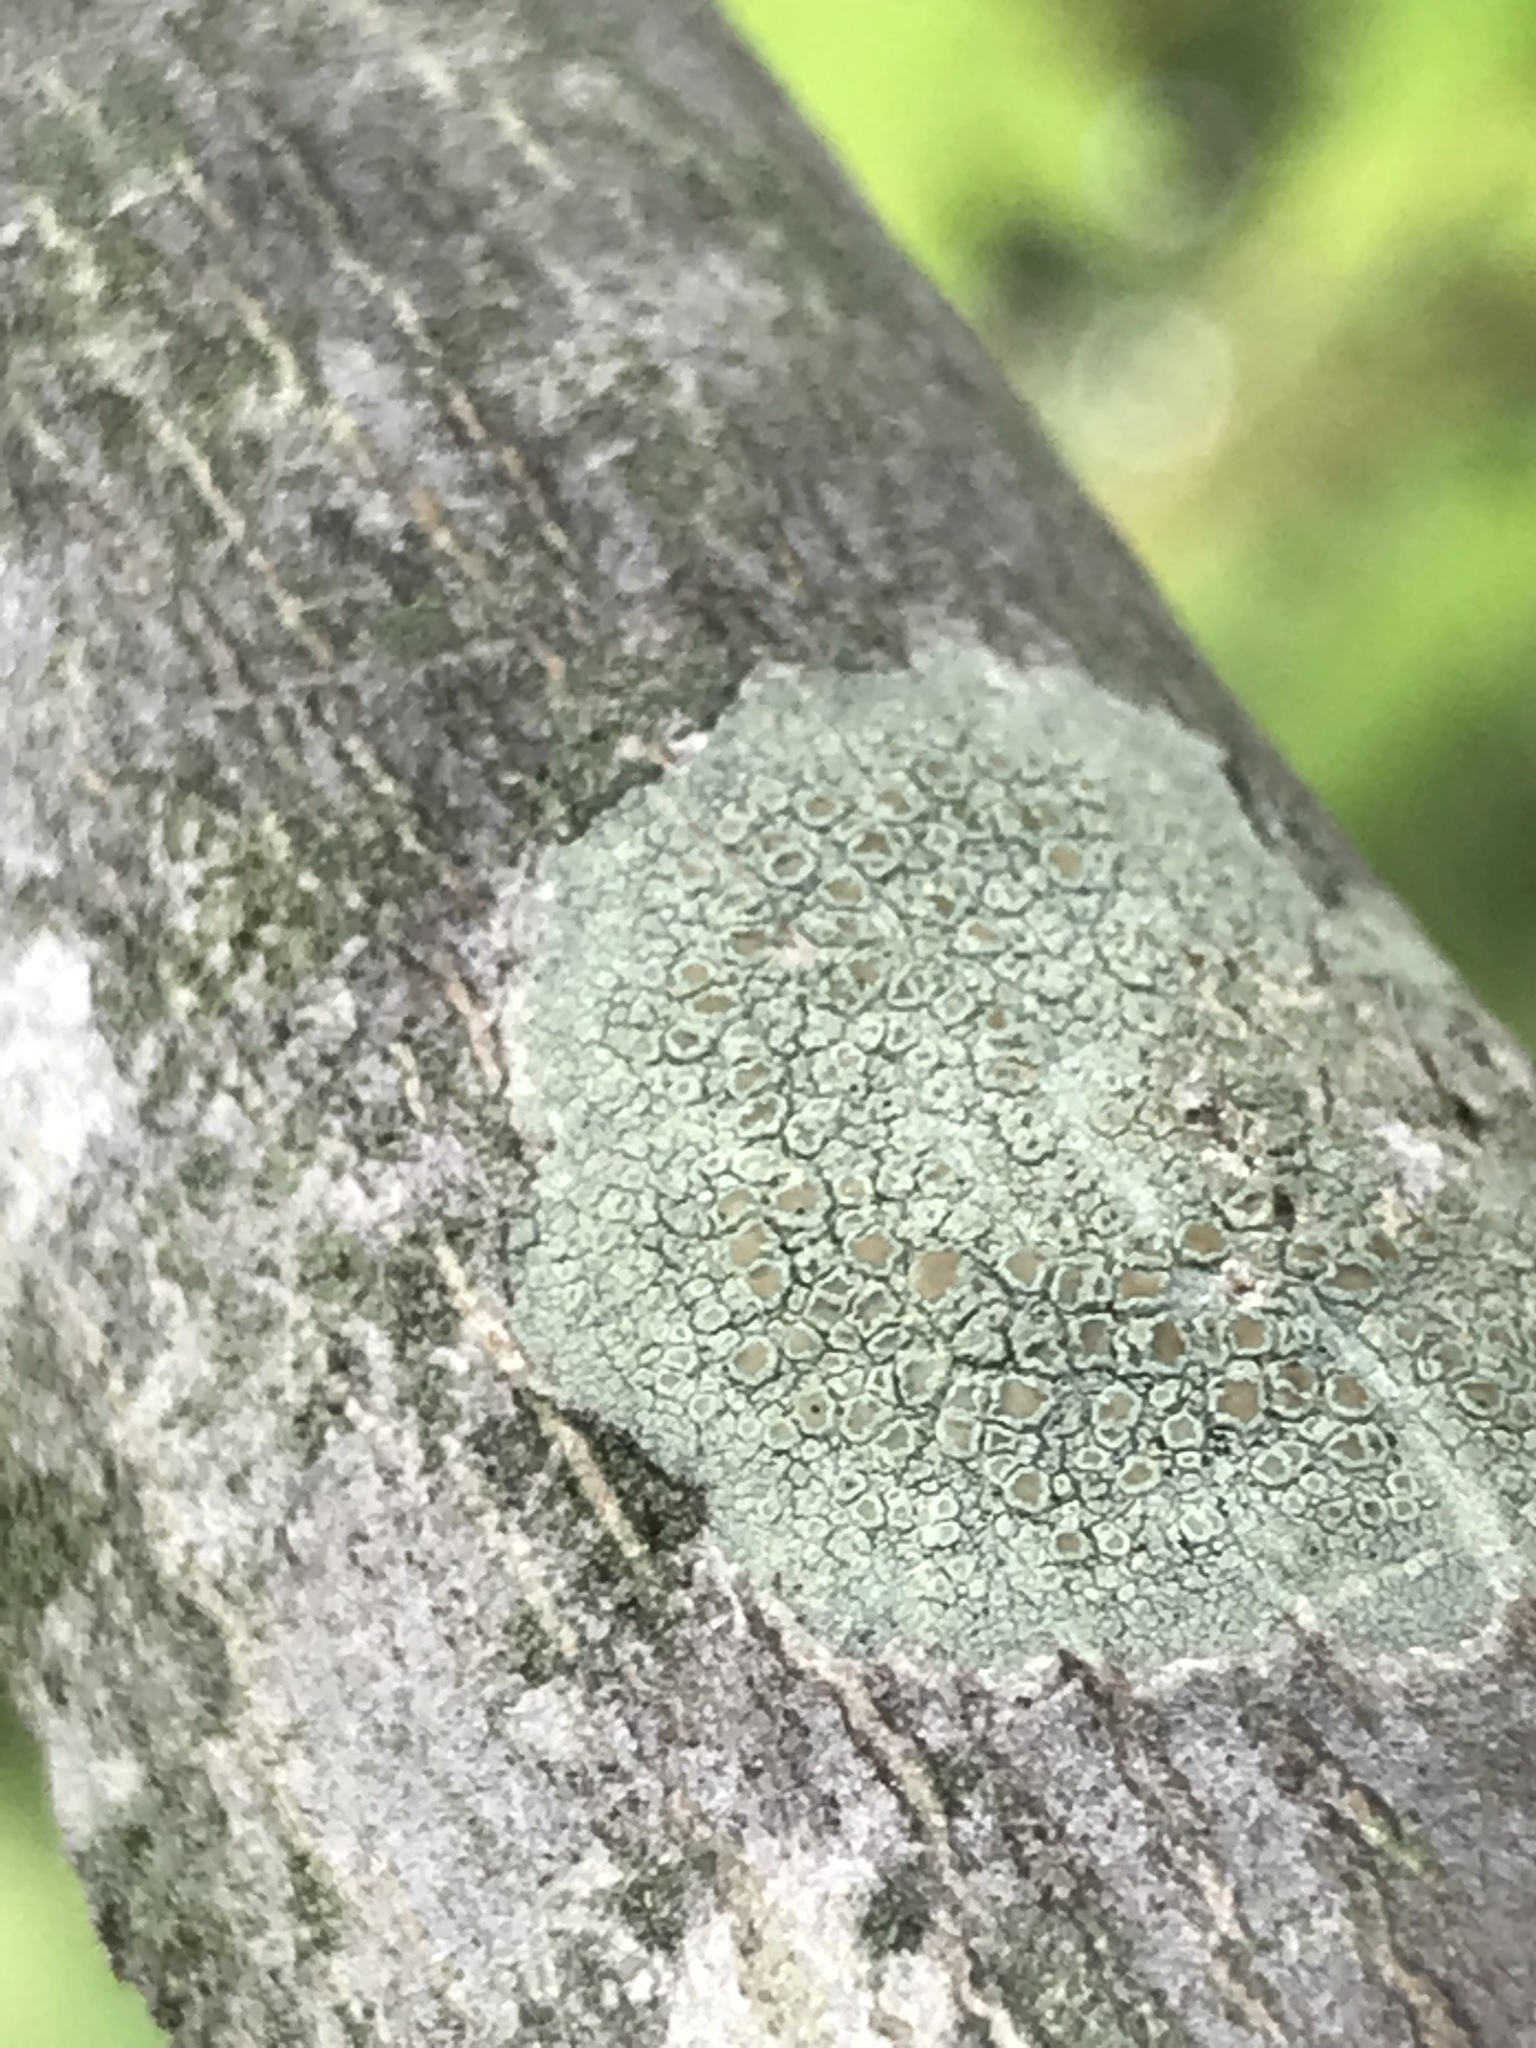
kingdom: Fungi
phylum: Ascomycota
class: Lecanoromycetes
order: Lecanorales
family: Lecanoraceae
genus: Lecanora
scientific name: Lecanora strobilina
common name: Mealy rim-lichen
